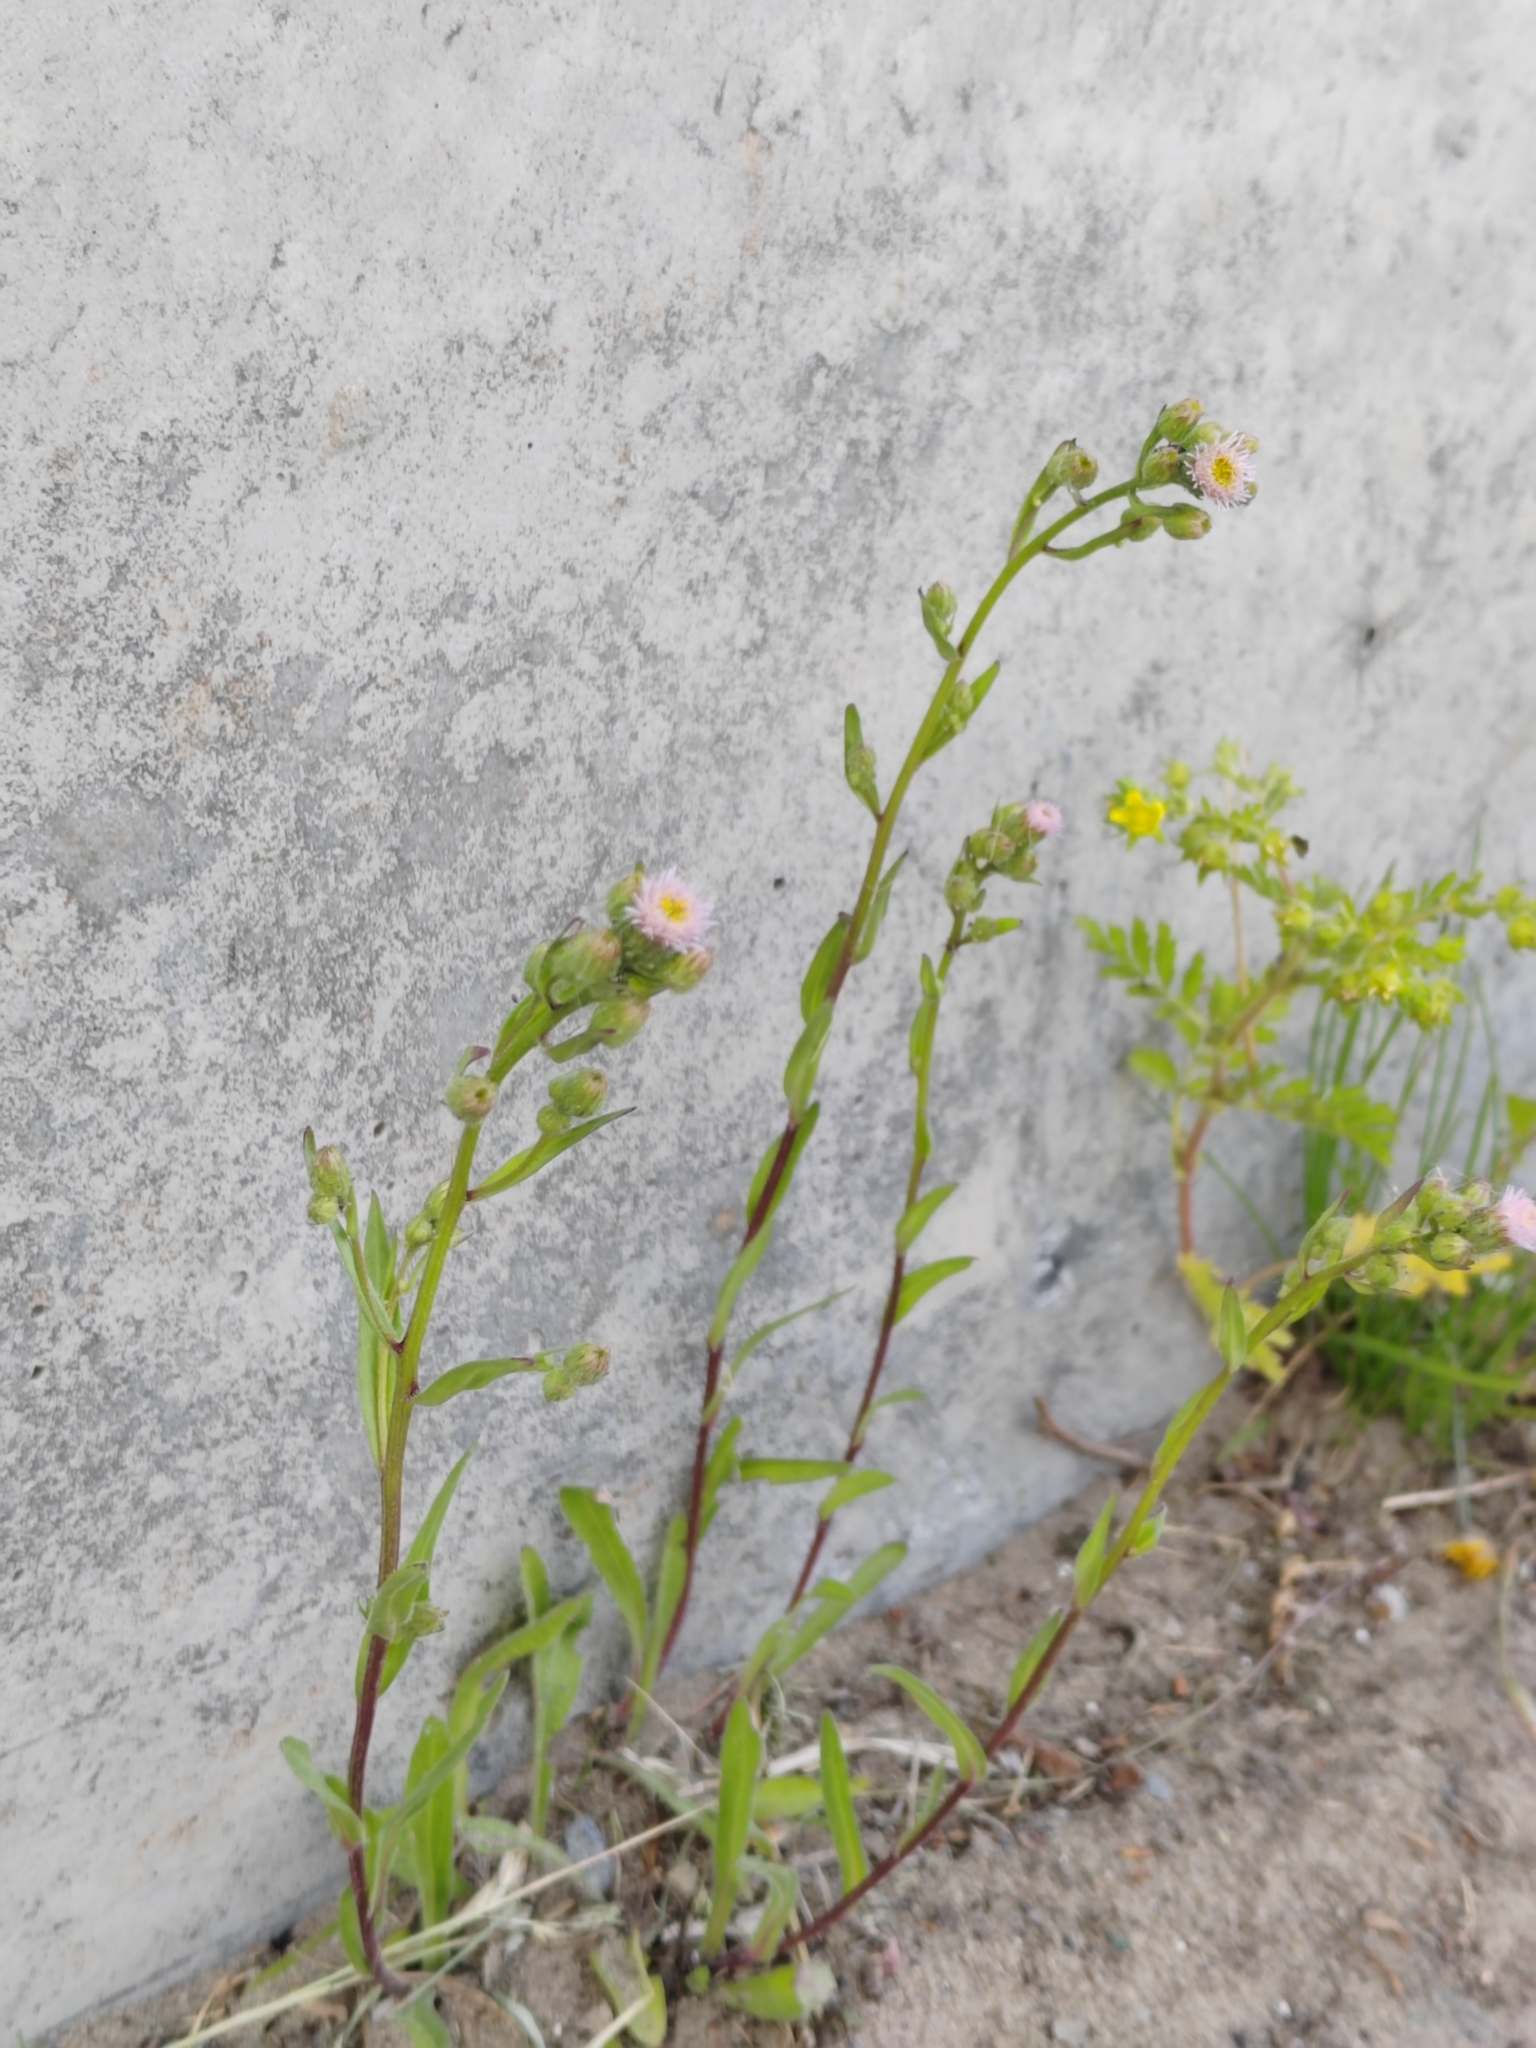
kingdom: Plantae
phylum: Tracheophyta
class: Magnoliopsida
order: Asterales
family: Asteraceae
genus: Erigeron
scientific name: Erigeron acris
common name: Blue fleabane
